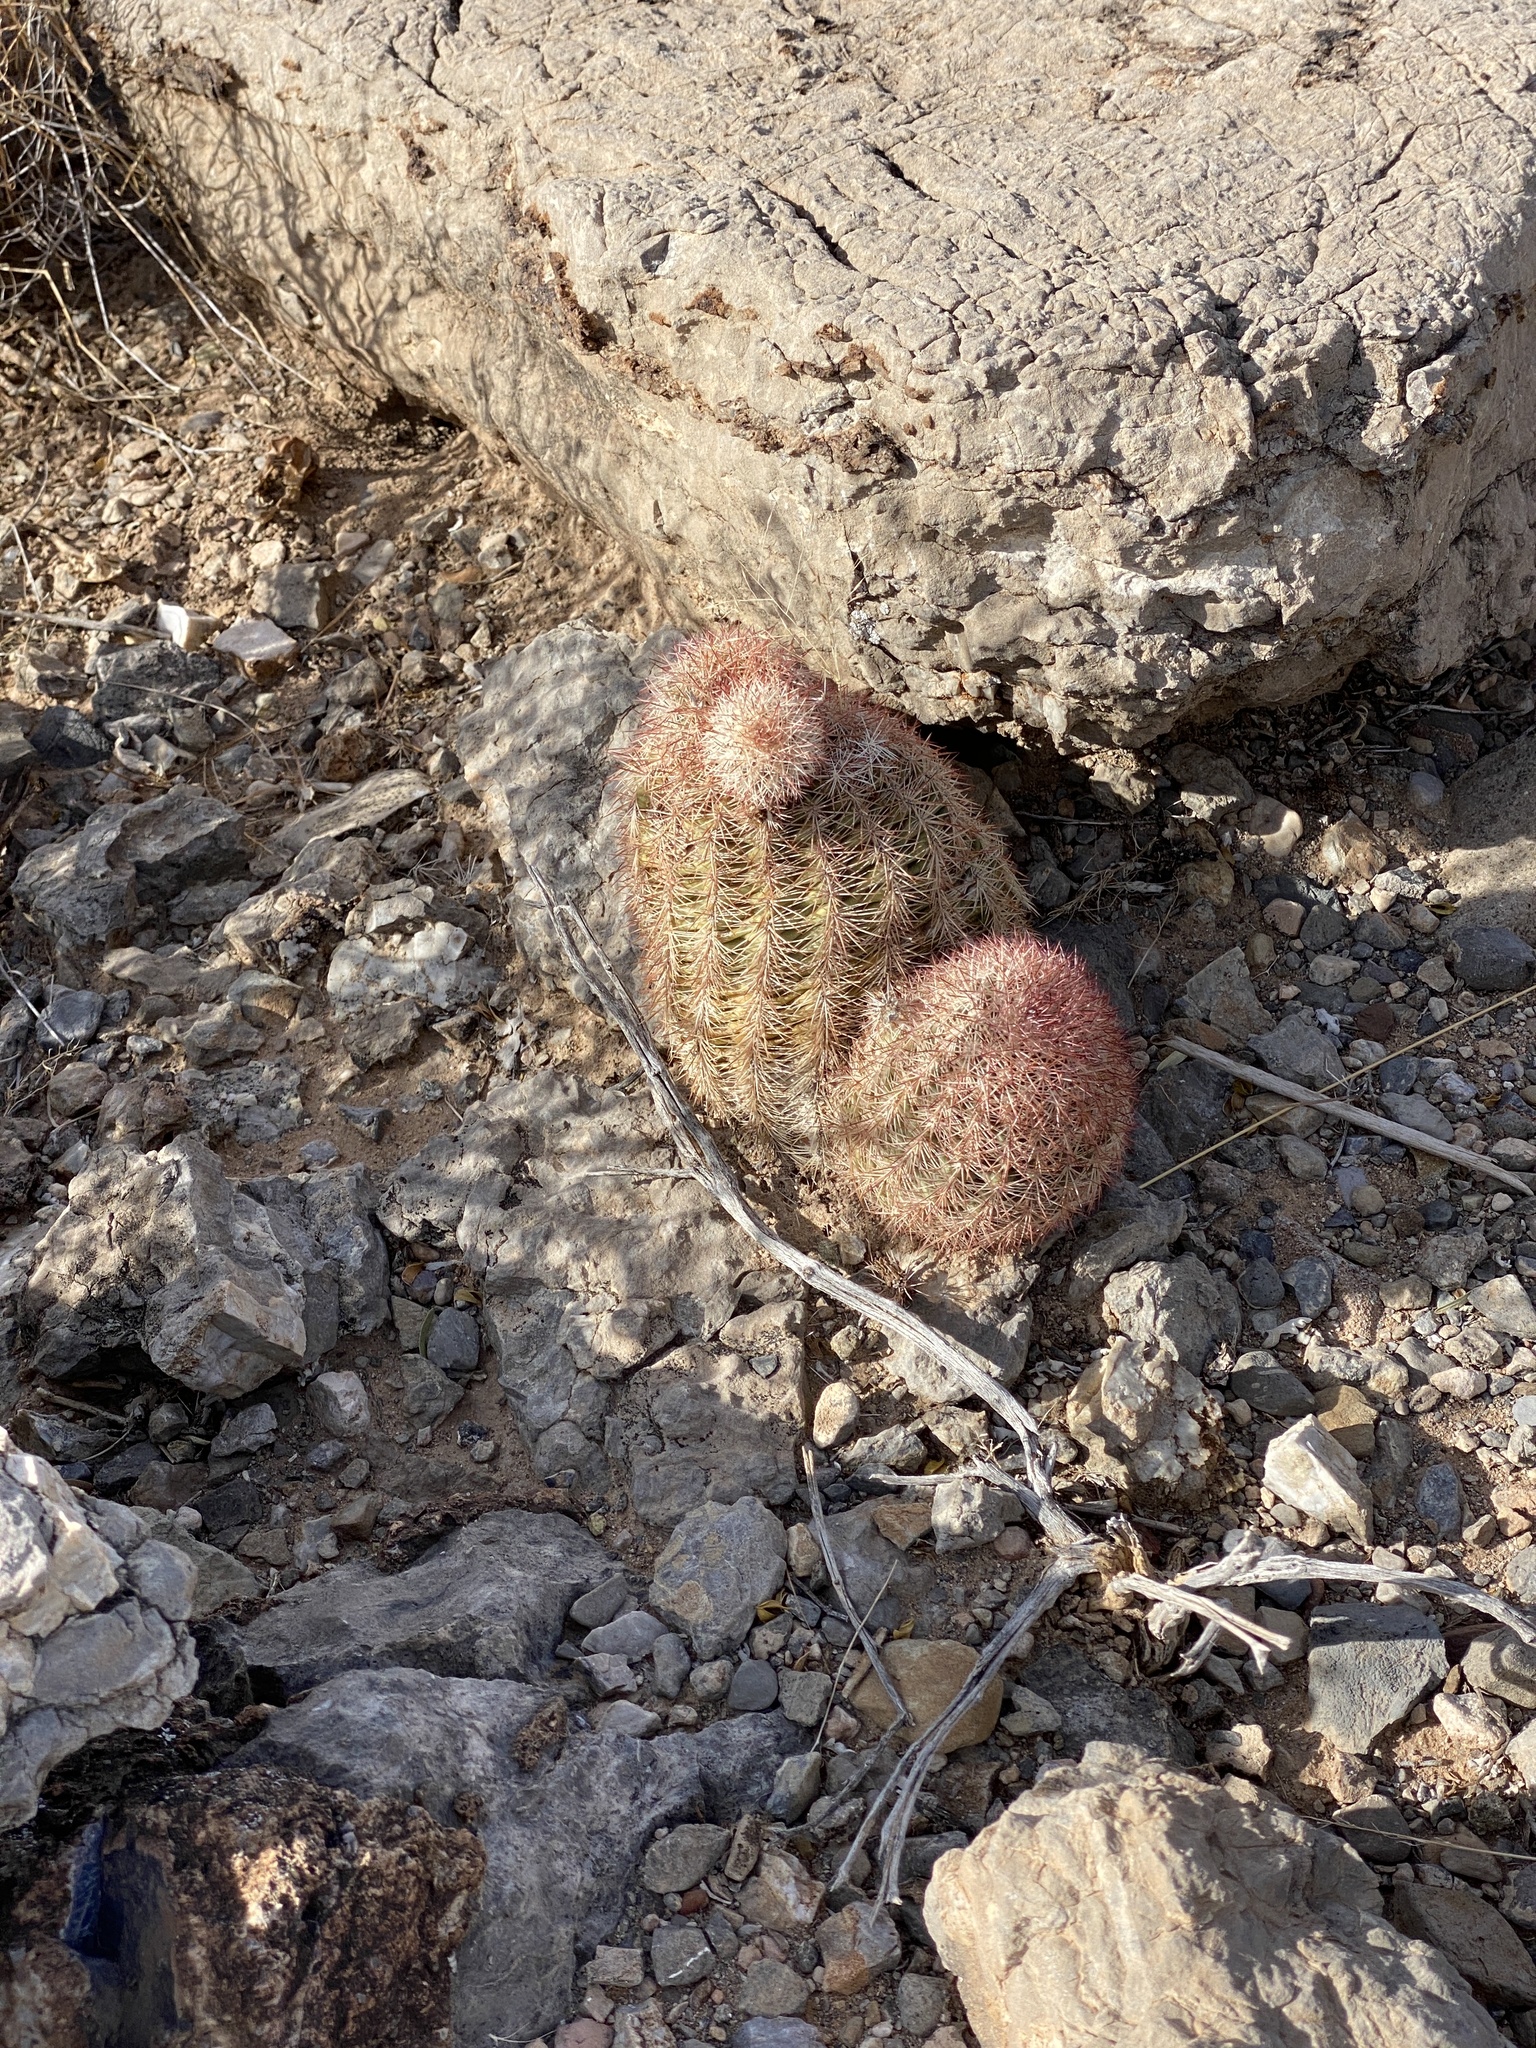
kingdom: Plantae
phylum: Tracheophyta
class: Magnoliopsida
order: Caryophyllales
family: Cactaceae
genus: Echinocereus
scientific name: Echinocereus dasyacanthus
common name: Spiny hedgehog cactus
